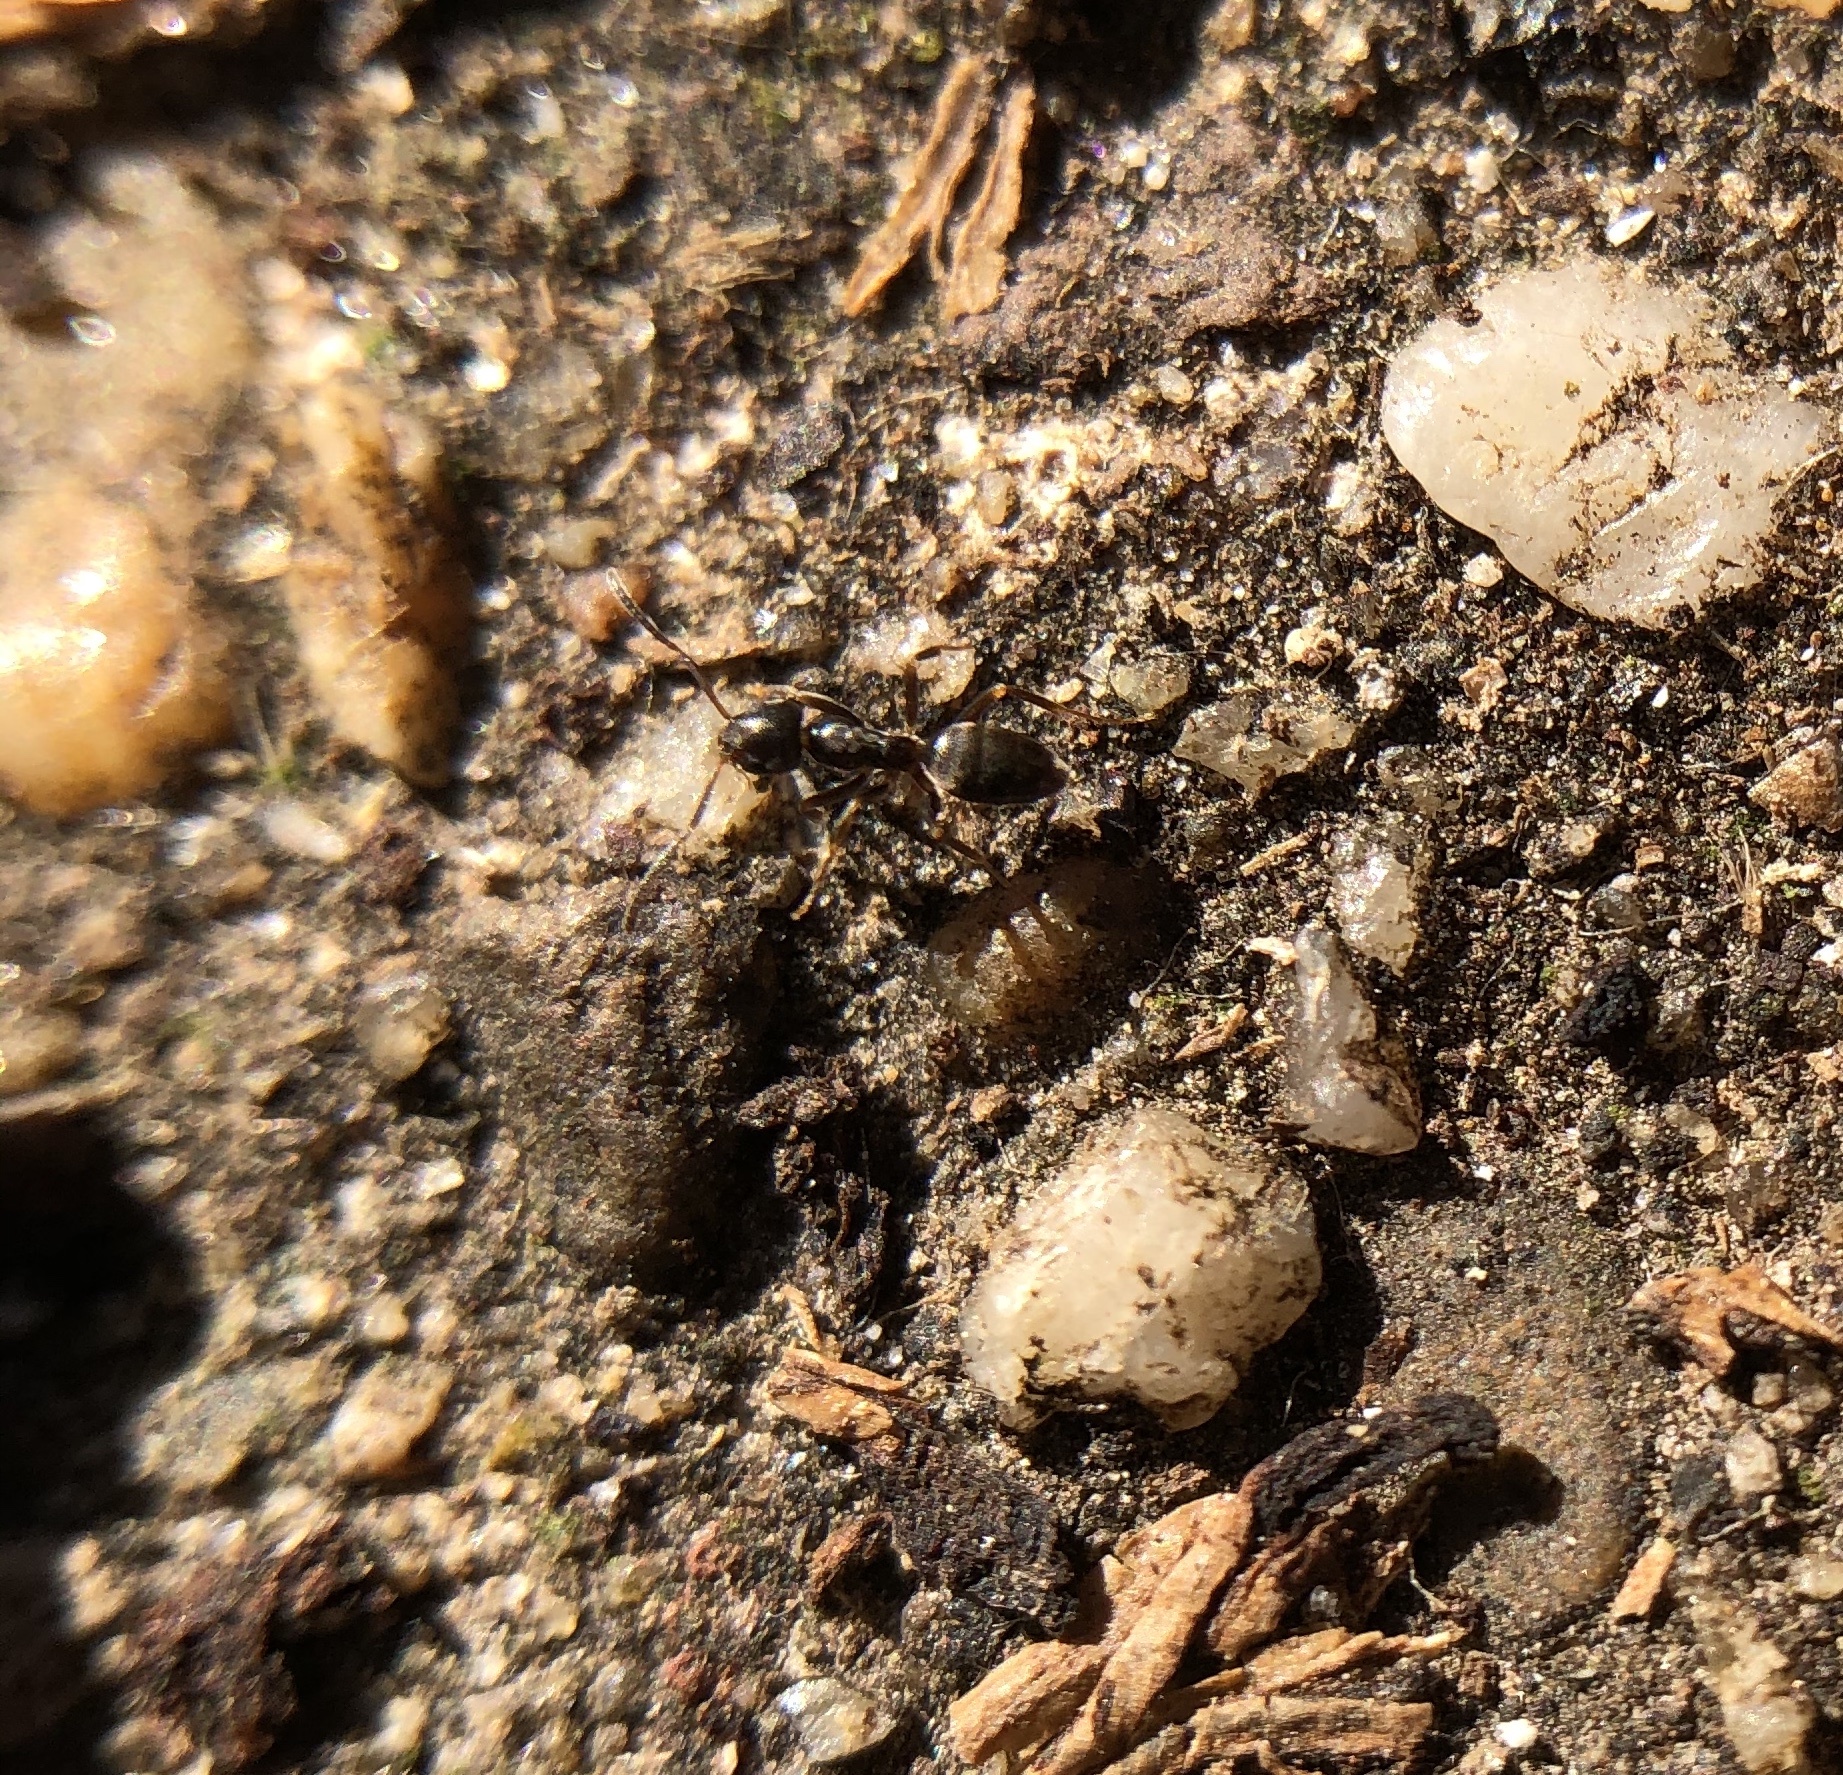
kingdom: Animalia
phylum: Arthropoda
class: Insecta
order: Hymenoptera
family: Formicidae
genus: Tapinoma
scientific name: Tapinoma sessile
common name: Odorous house ant
